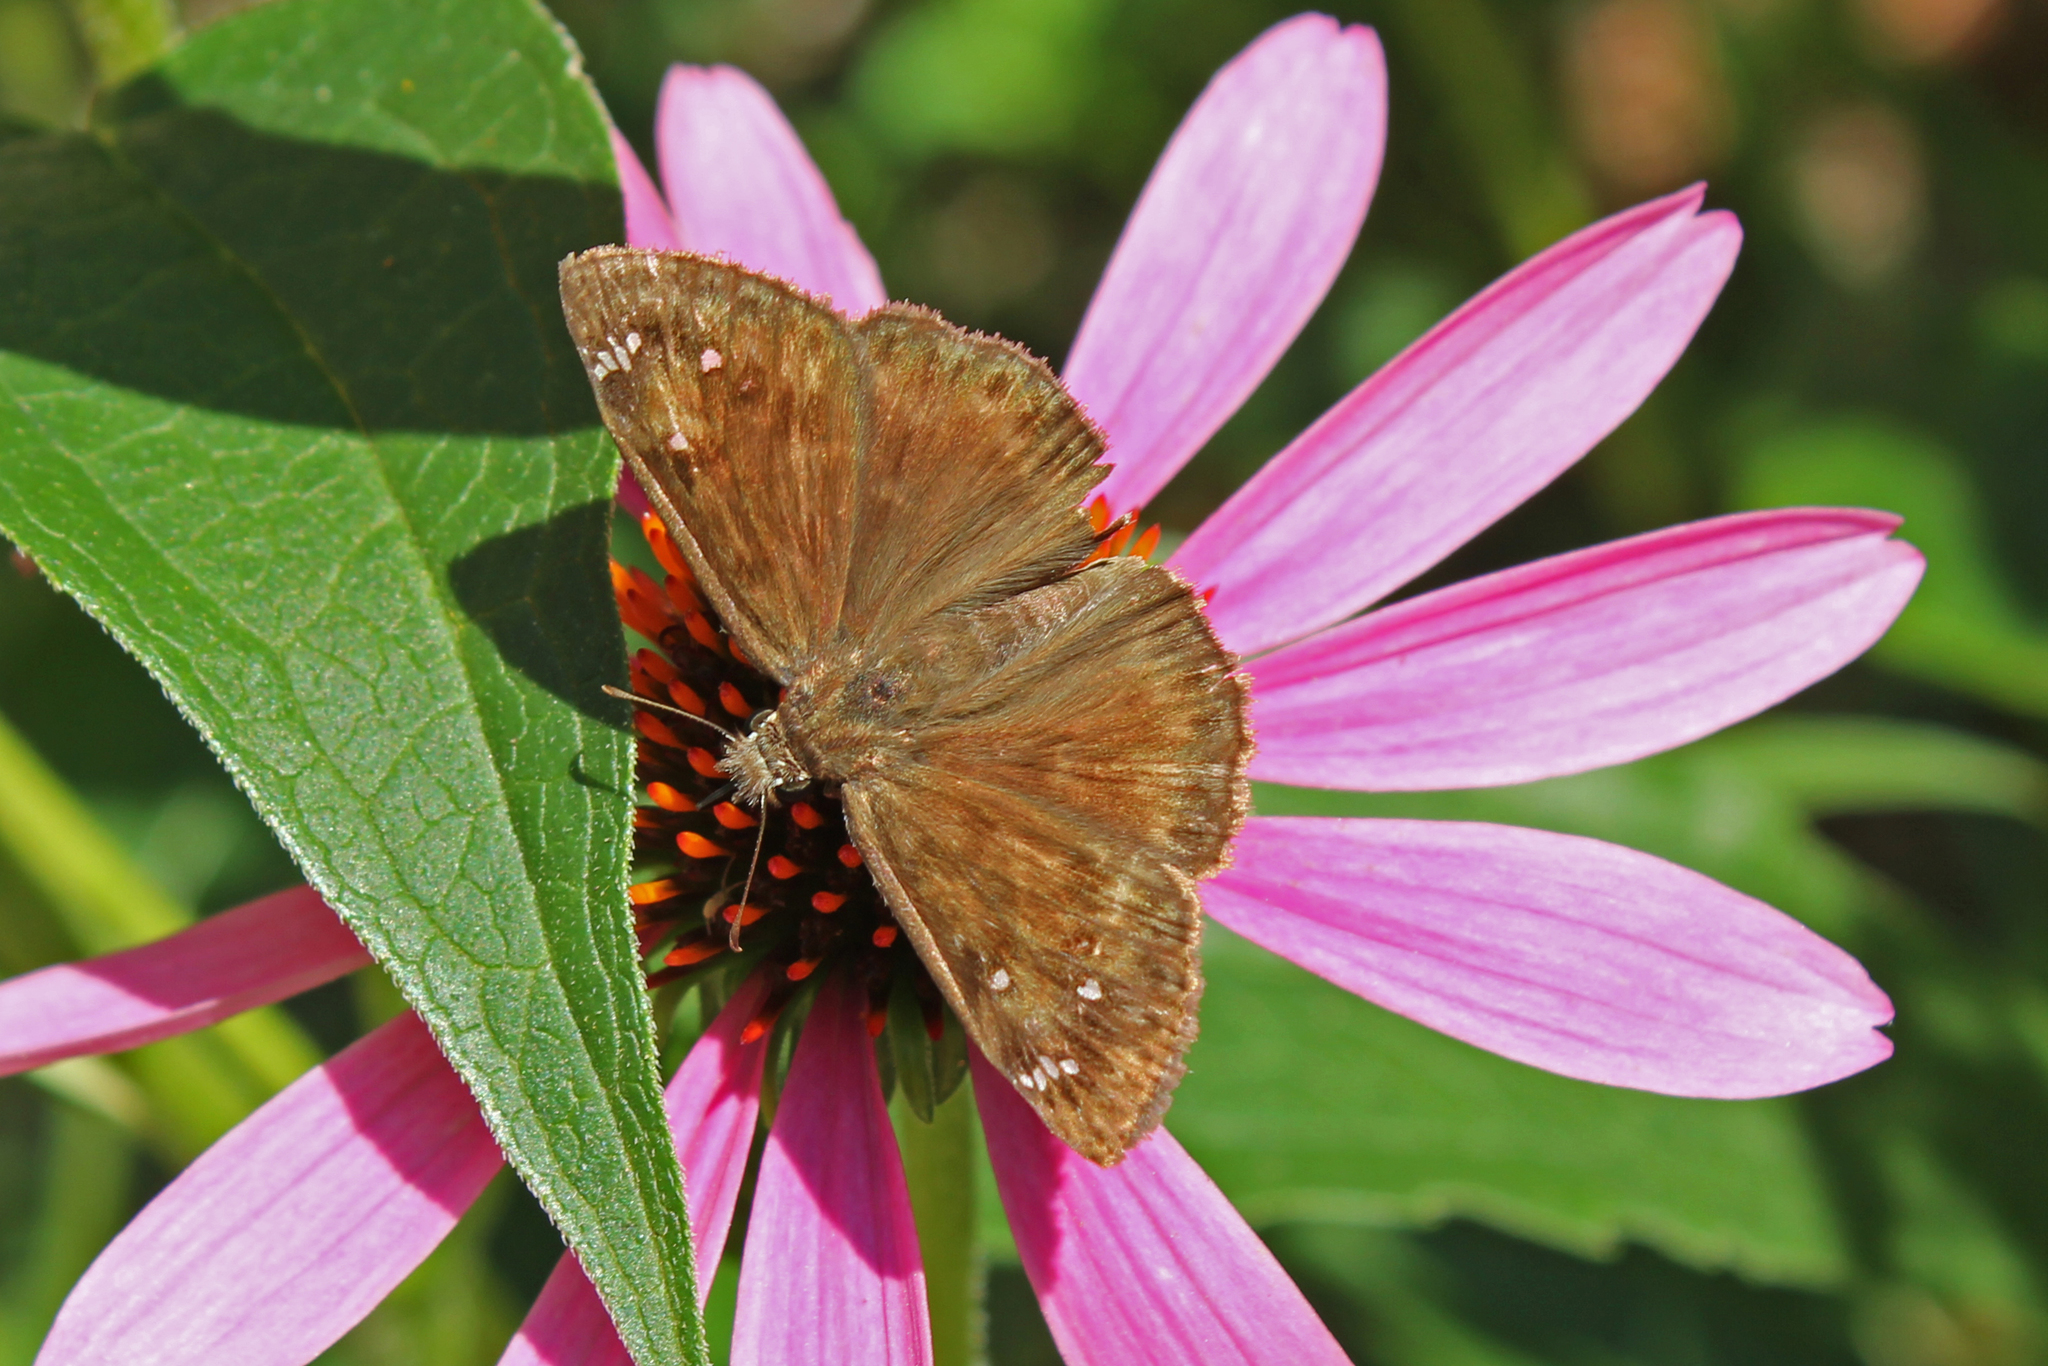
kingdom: Animalia
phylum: Arthropoda
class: Insecta
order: Lepidoptera
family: Hesperiidae
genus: Erynnis
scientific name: Erynnis horatius
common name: Horace's duskywing
